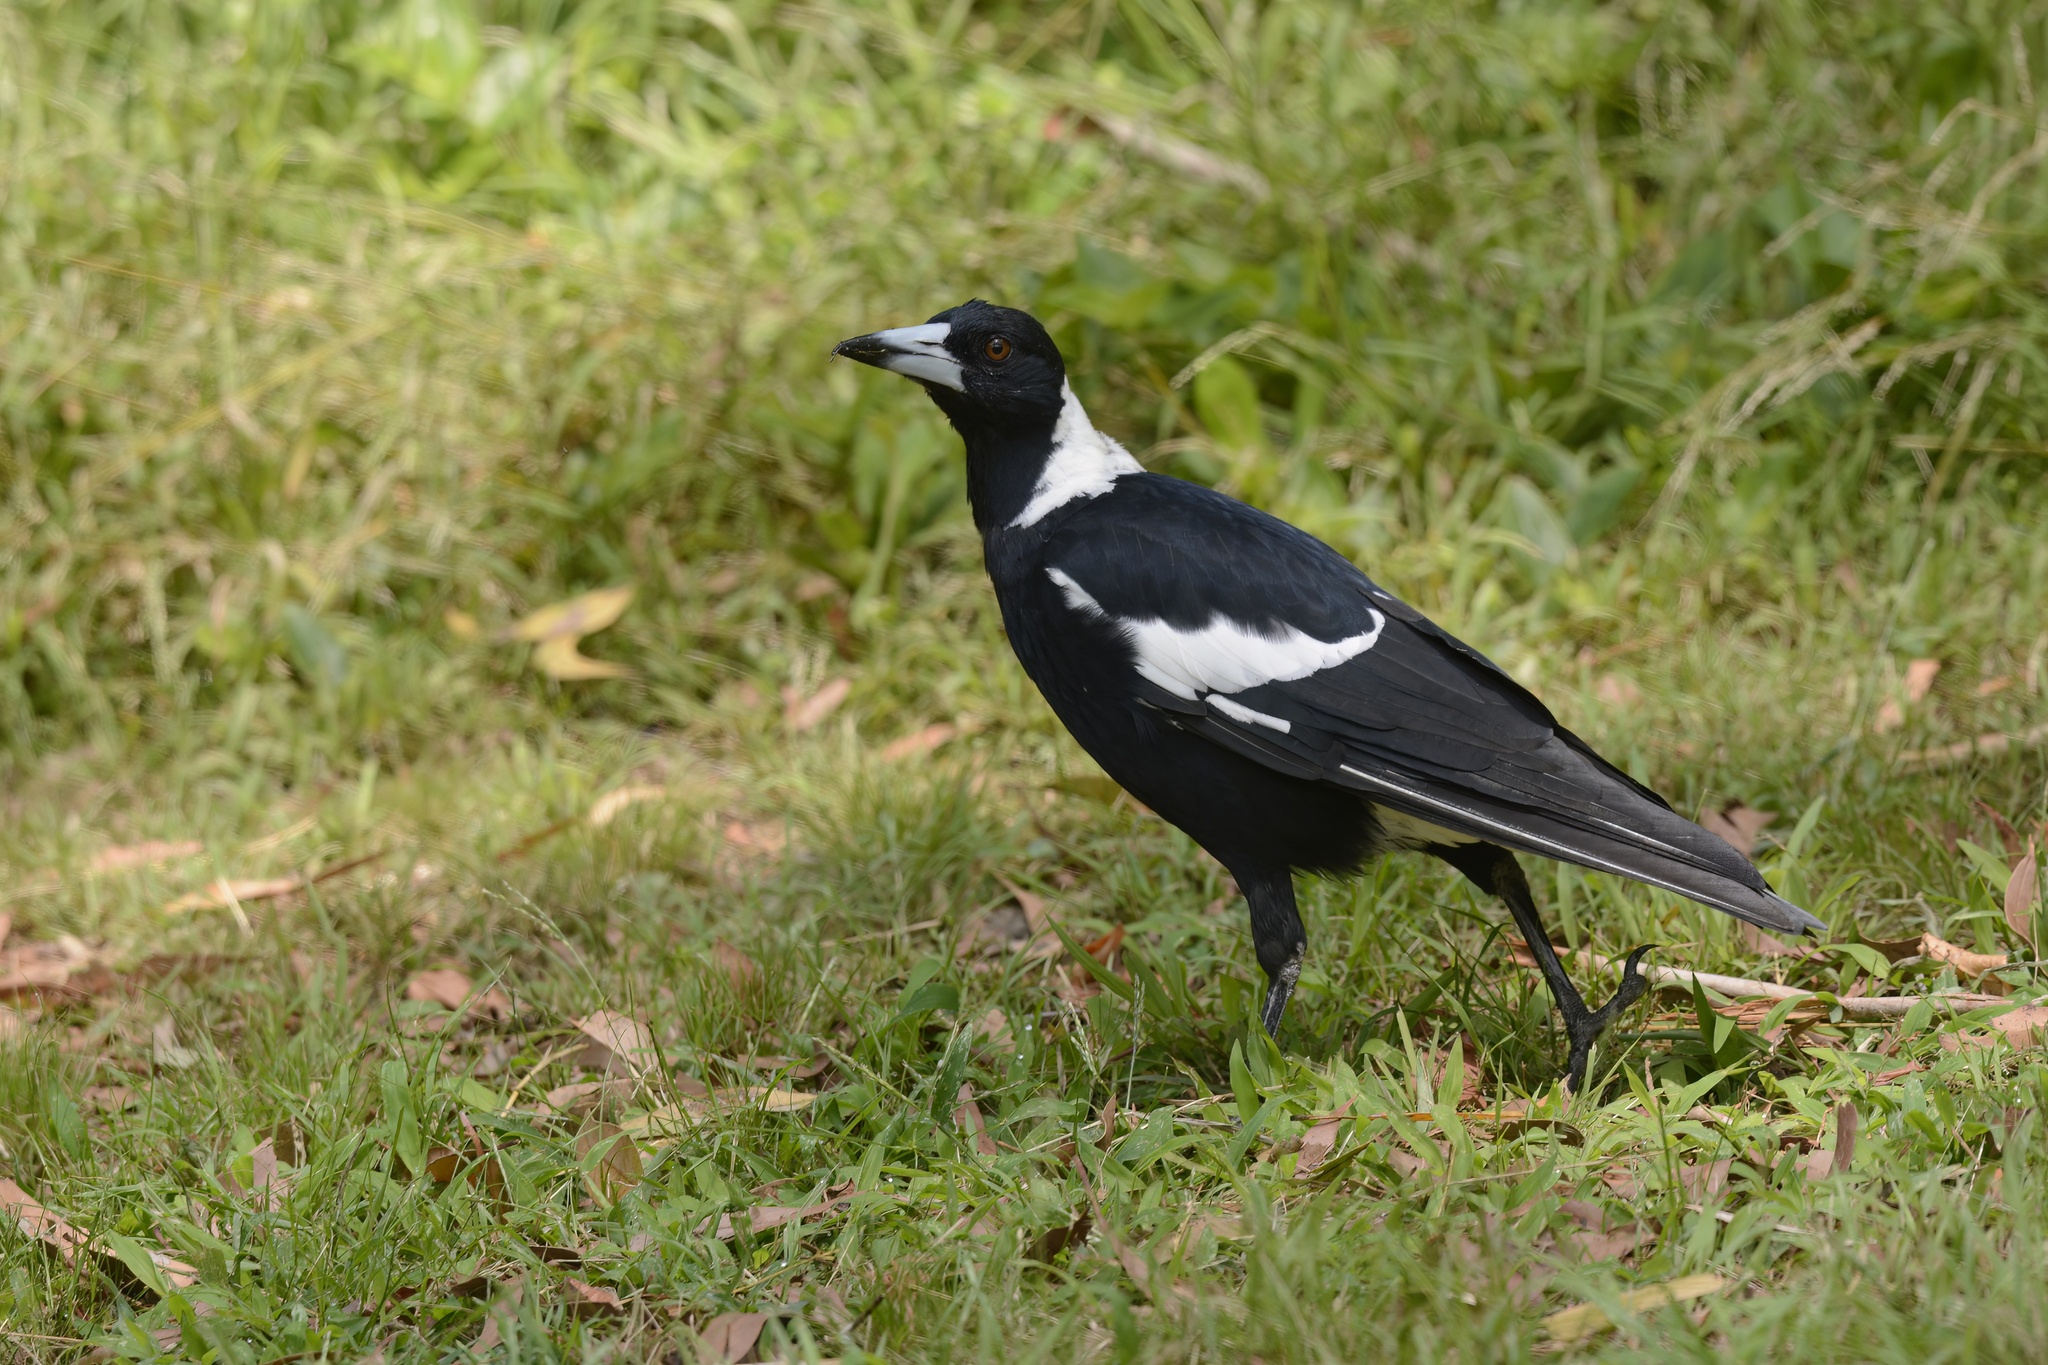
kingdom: Animalia
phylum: Chordata
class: Aves
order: Passeriformes
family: Cracticidae
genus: Gymnorhina
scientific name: Gymnorhina tibicen
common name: Australian magpie
